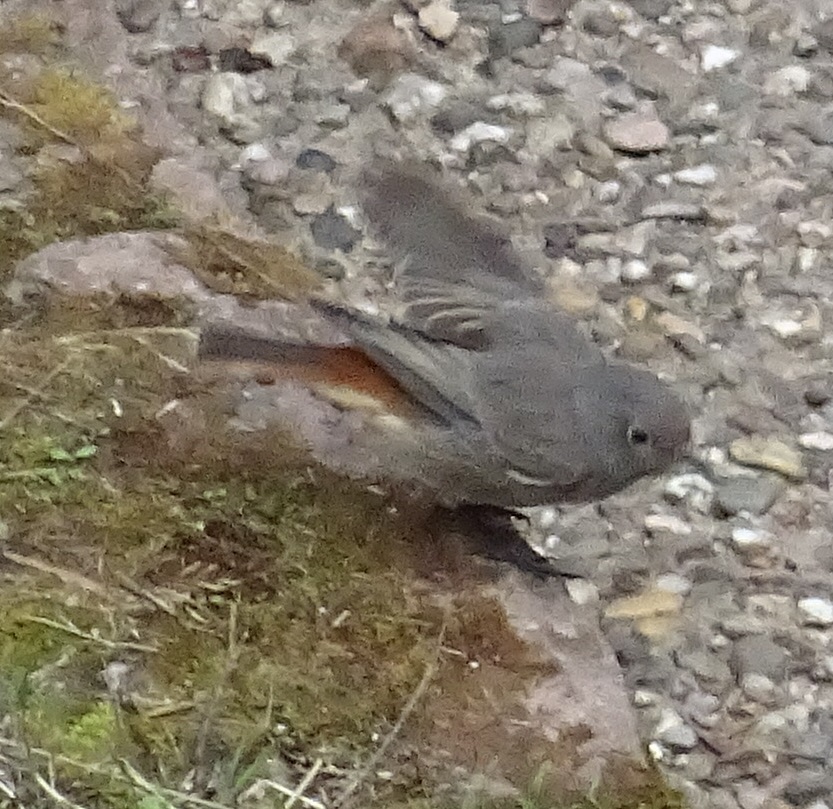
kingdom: Animalia
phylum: Chordata
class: Aves
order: Passeriformes
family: Muscicapidae
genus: Phoenicurus
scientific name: Phoenicurus ochruros
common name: Black redstart
